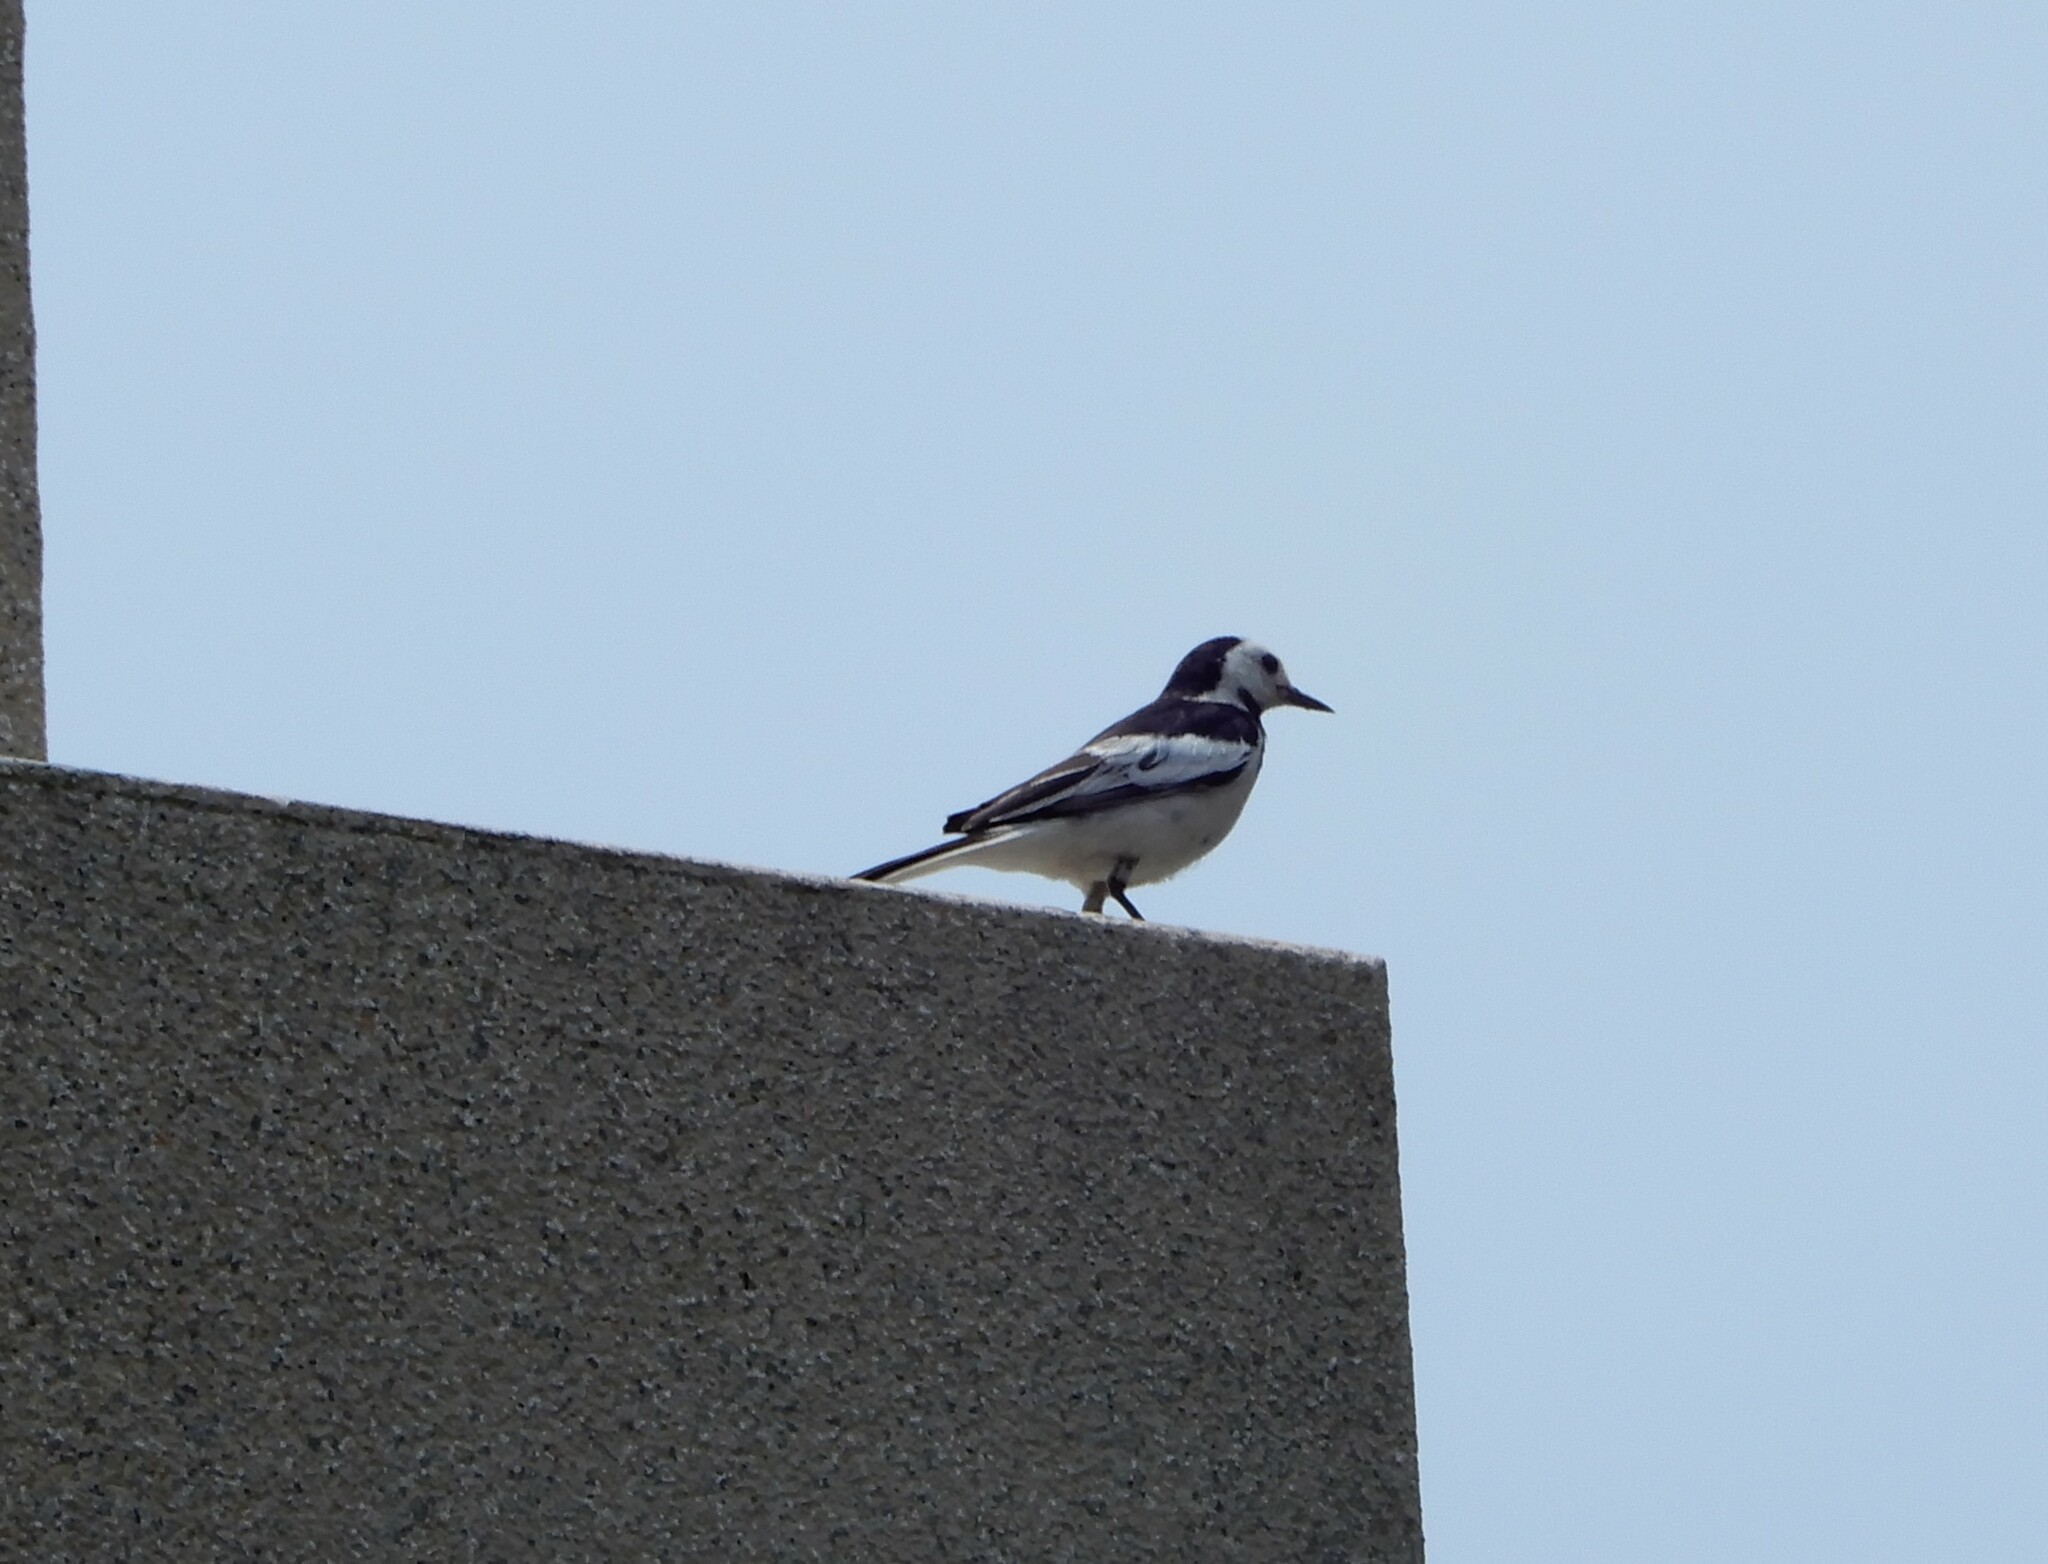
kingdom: Animalia
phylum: Chordata
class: Aves
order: Passeriformes
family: Motacillidae
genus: Motacilla
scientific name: Motacilla alba
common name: White wagtail
